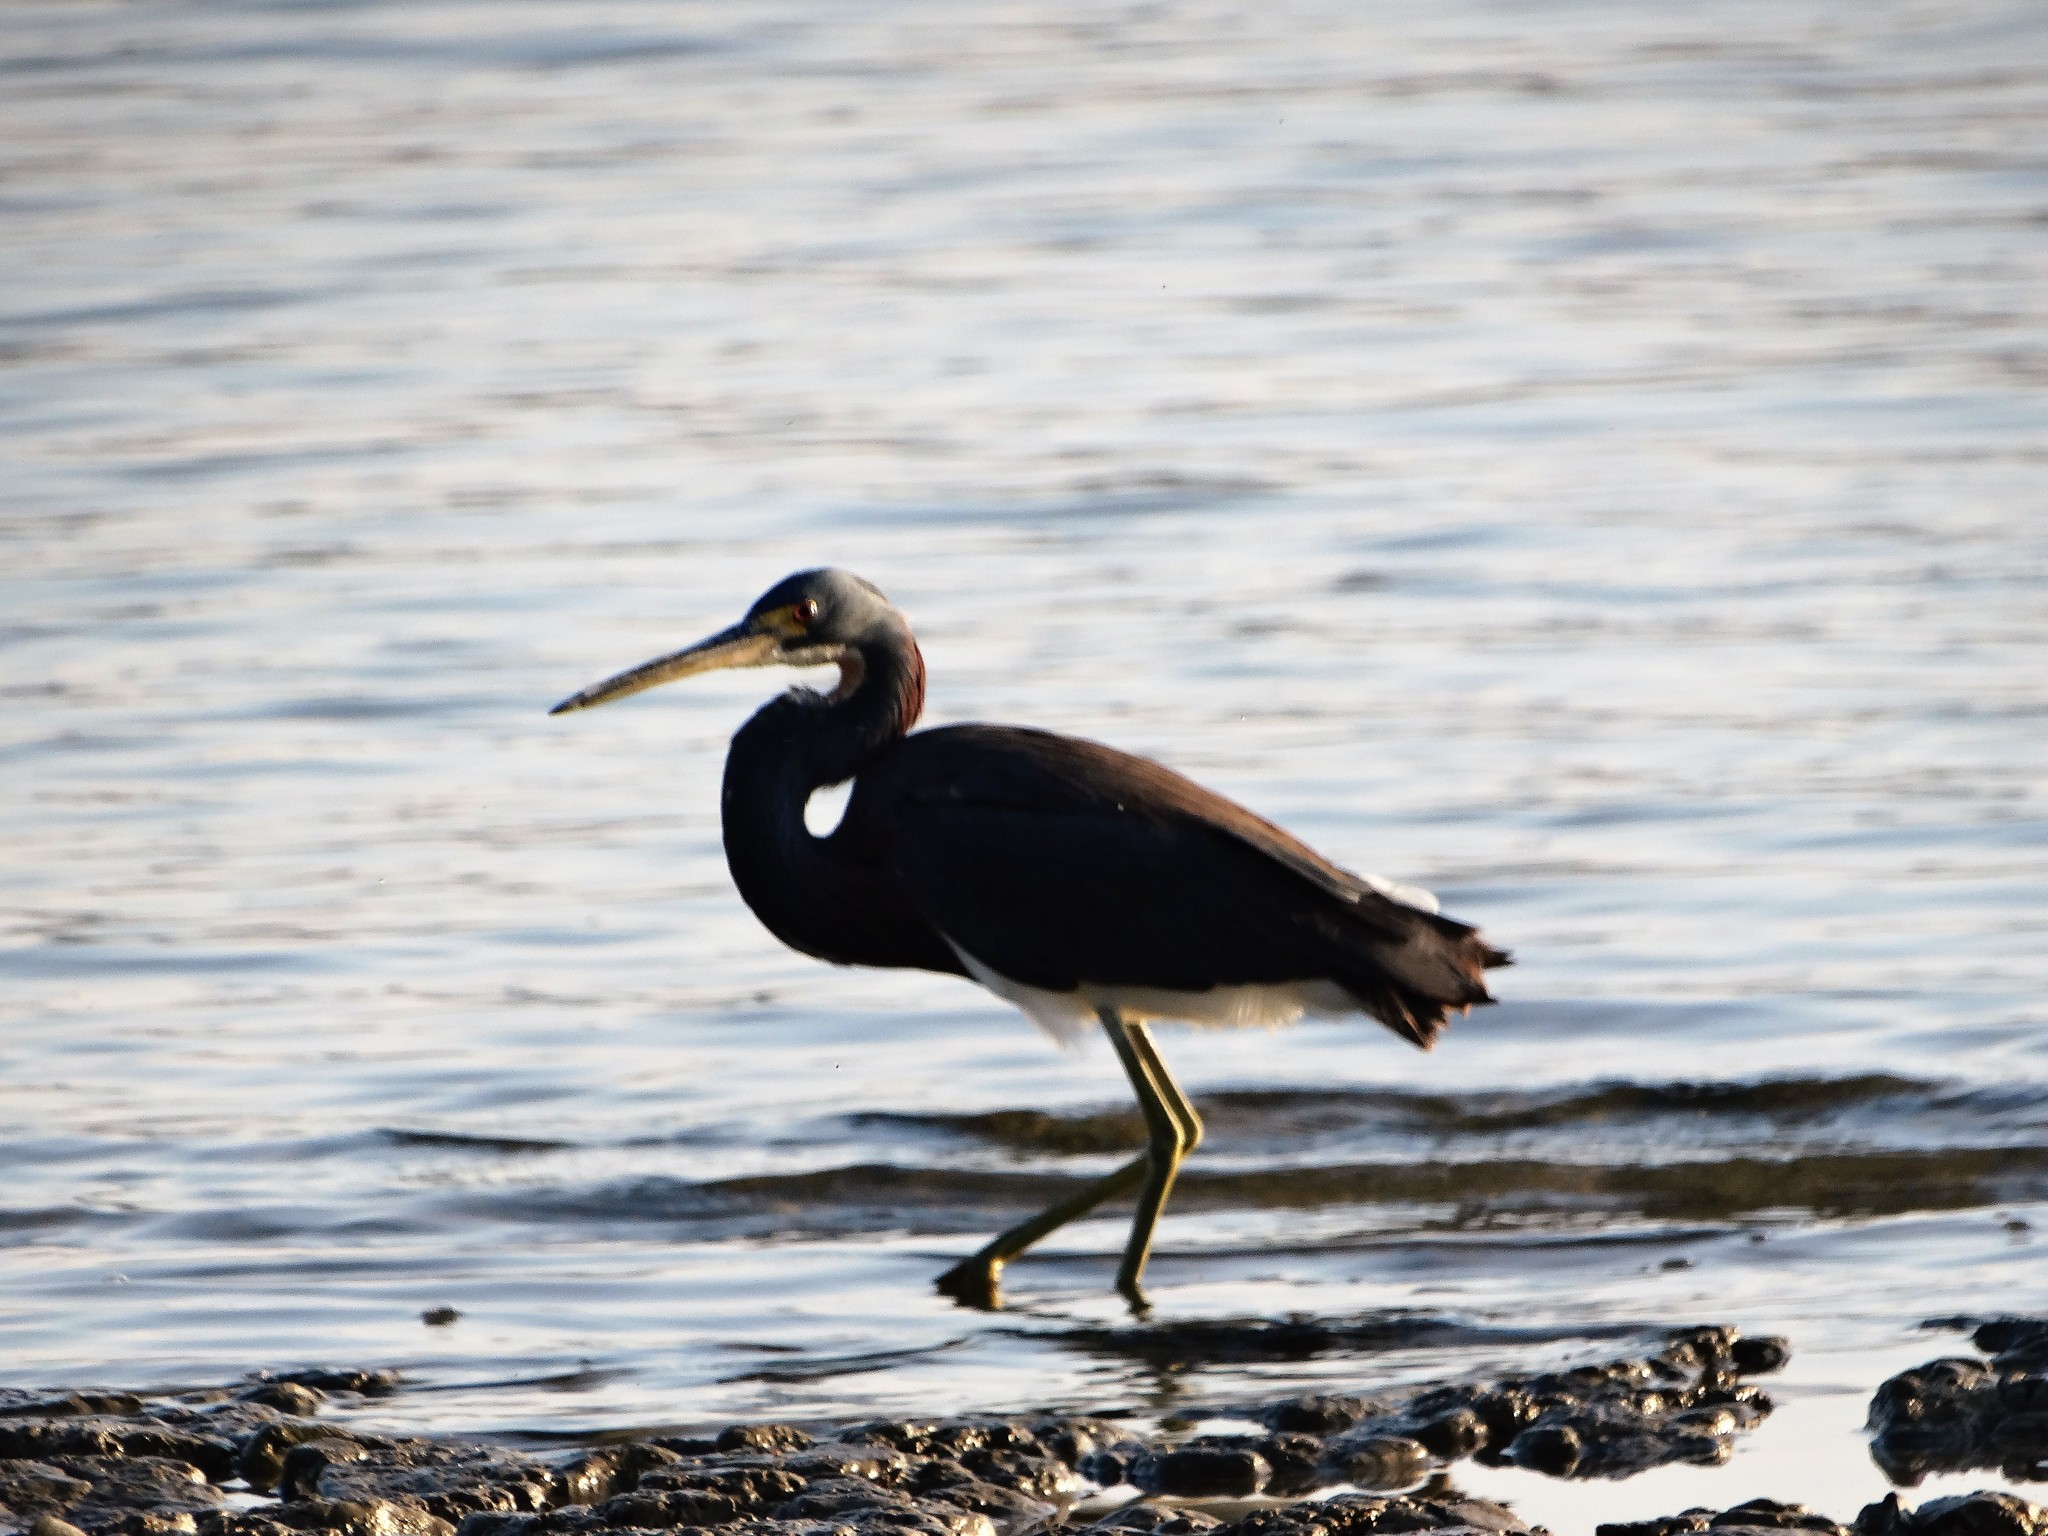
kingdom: Animalia
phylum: Chordata
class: Aves
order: Pelecaniformes
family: Ardeidae
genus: Egretta
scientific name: Egretta tricolor
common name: Tricolored heron
